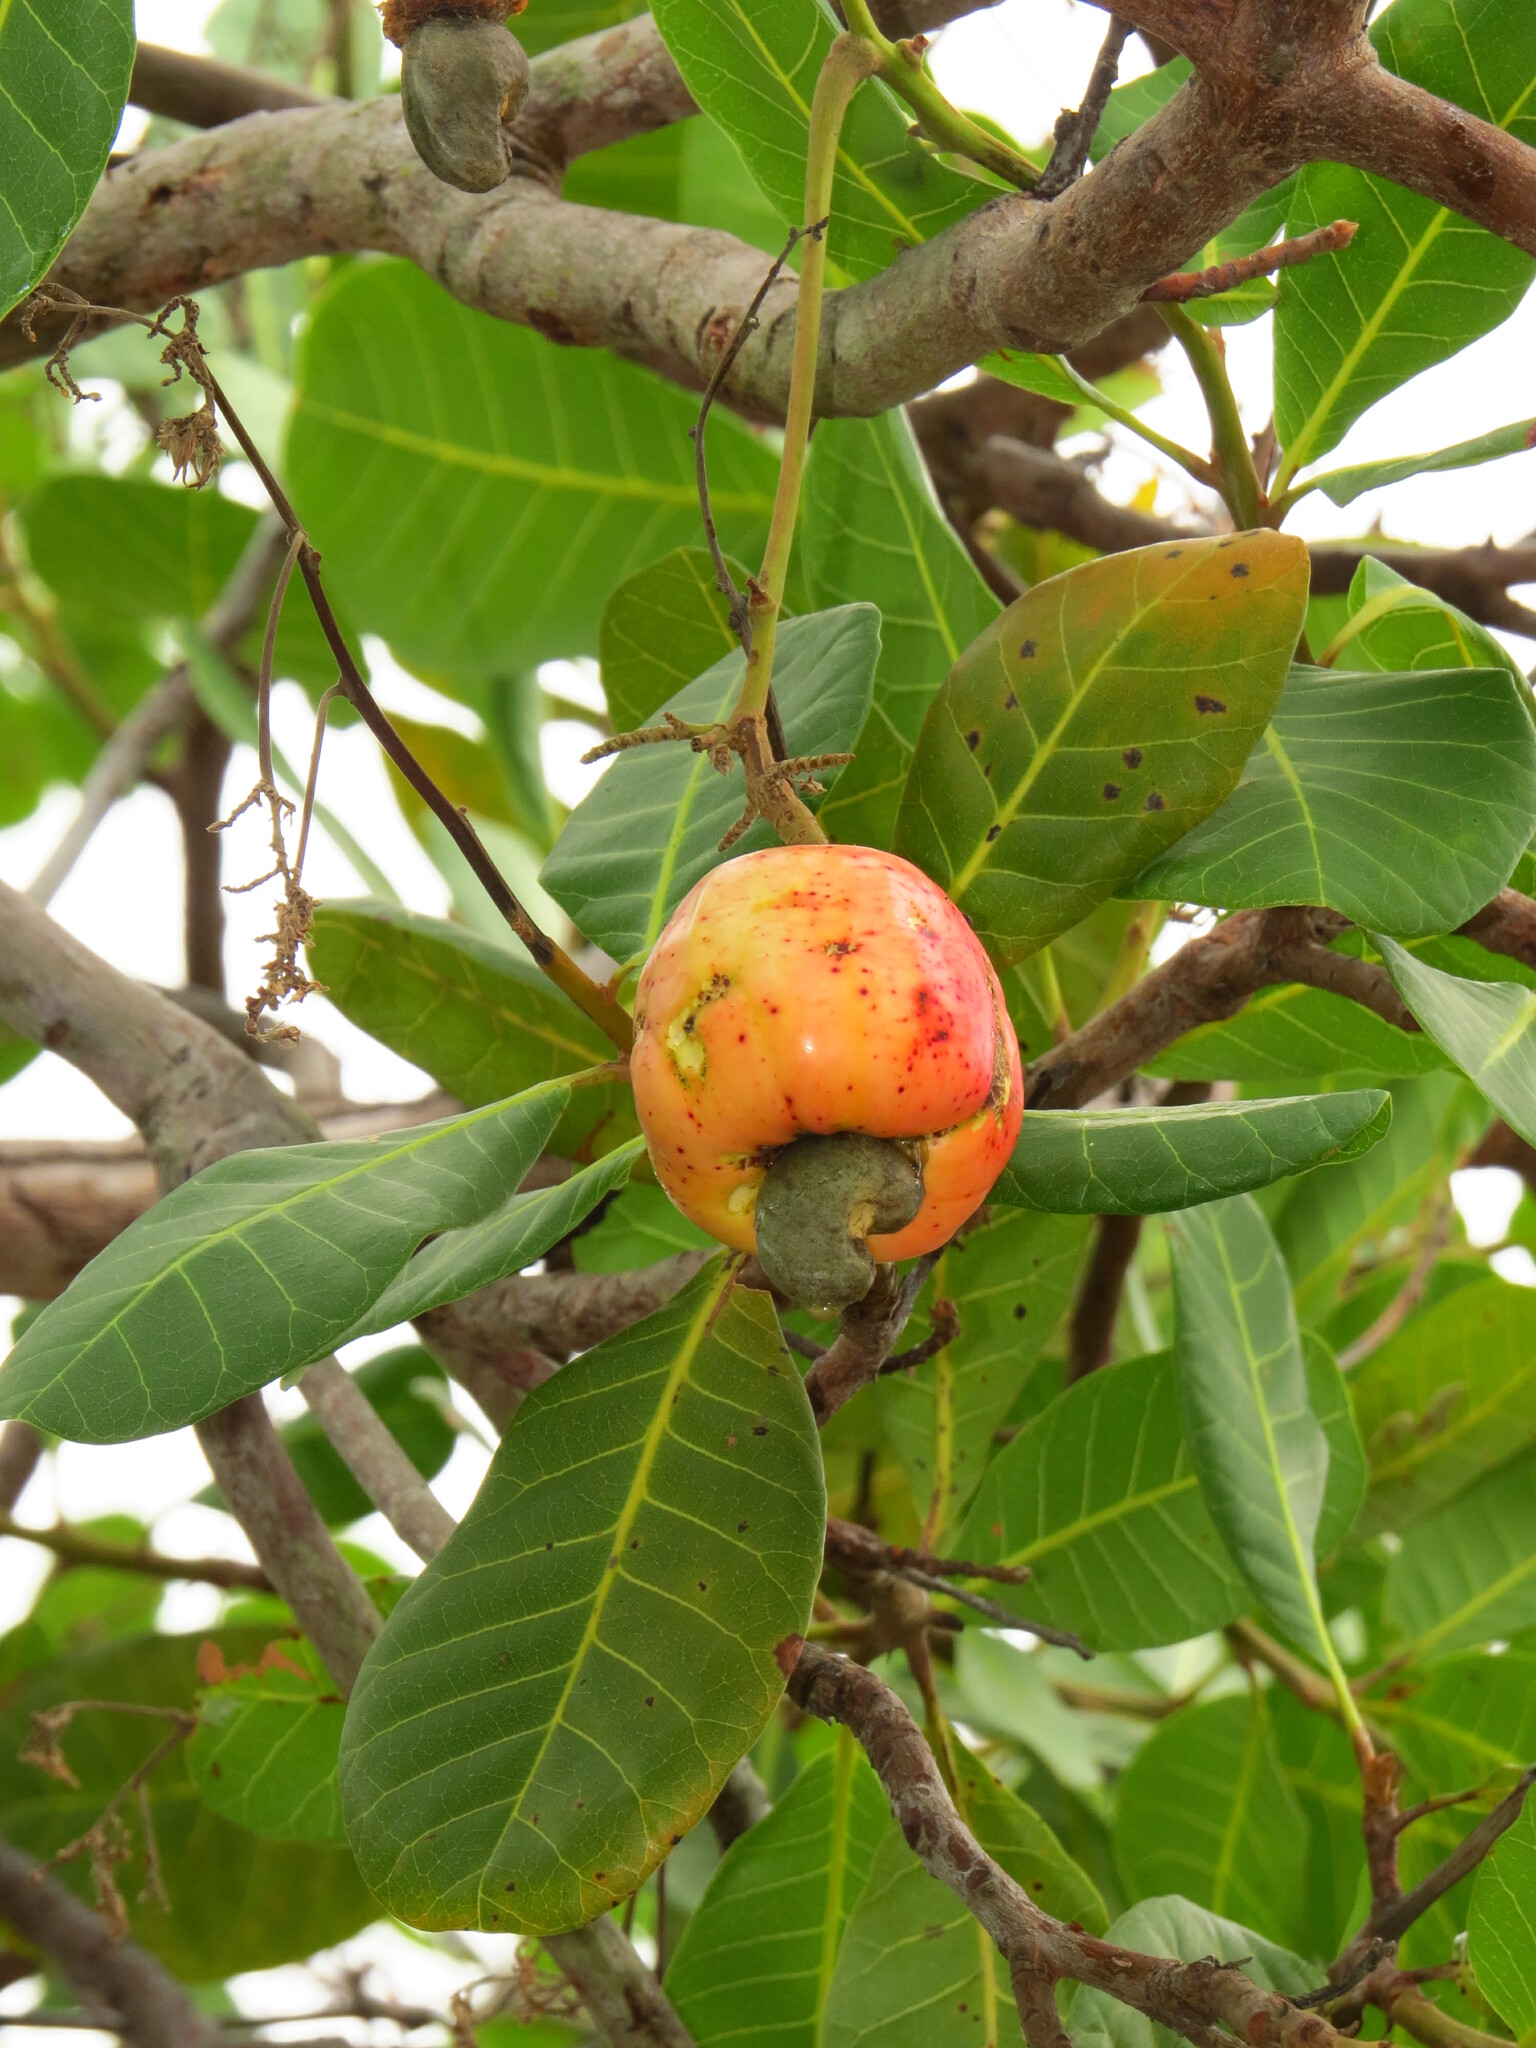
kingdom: Plantae
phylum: Tracheophyta
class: Magnoliopsida
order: Sapindales
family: Anacardiaceae
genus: Anacardium
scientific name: Anacardium occidentale
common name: Cashew
